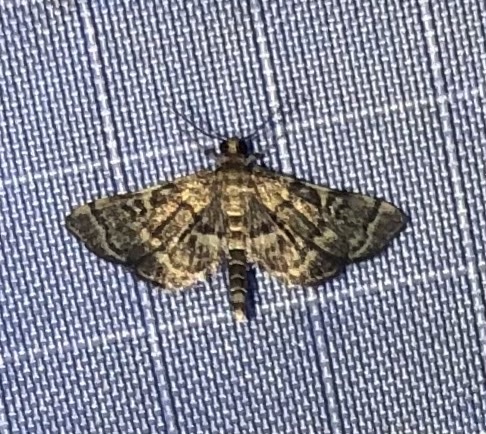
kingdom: Animalia
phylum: Arthropoda
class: Insecta
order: Lepidoptera
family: Crambidae
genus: Anageshna
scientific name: Anageshna primordialis
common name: Yellow-spotted webworm moth
